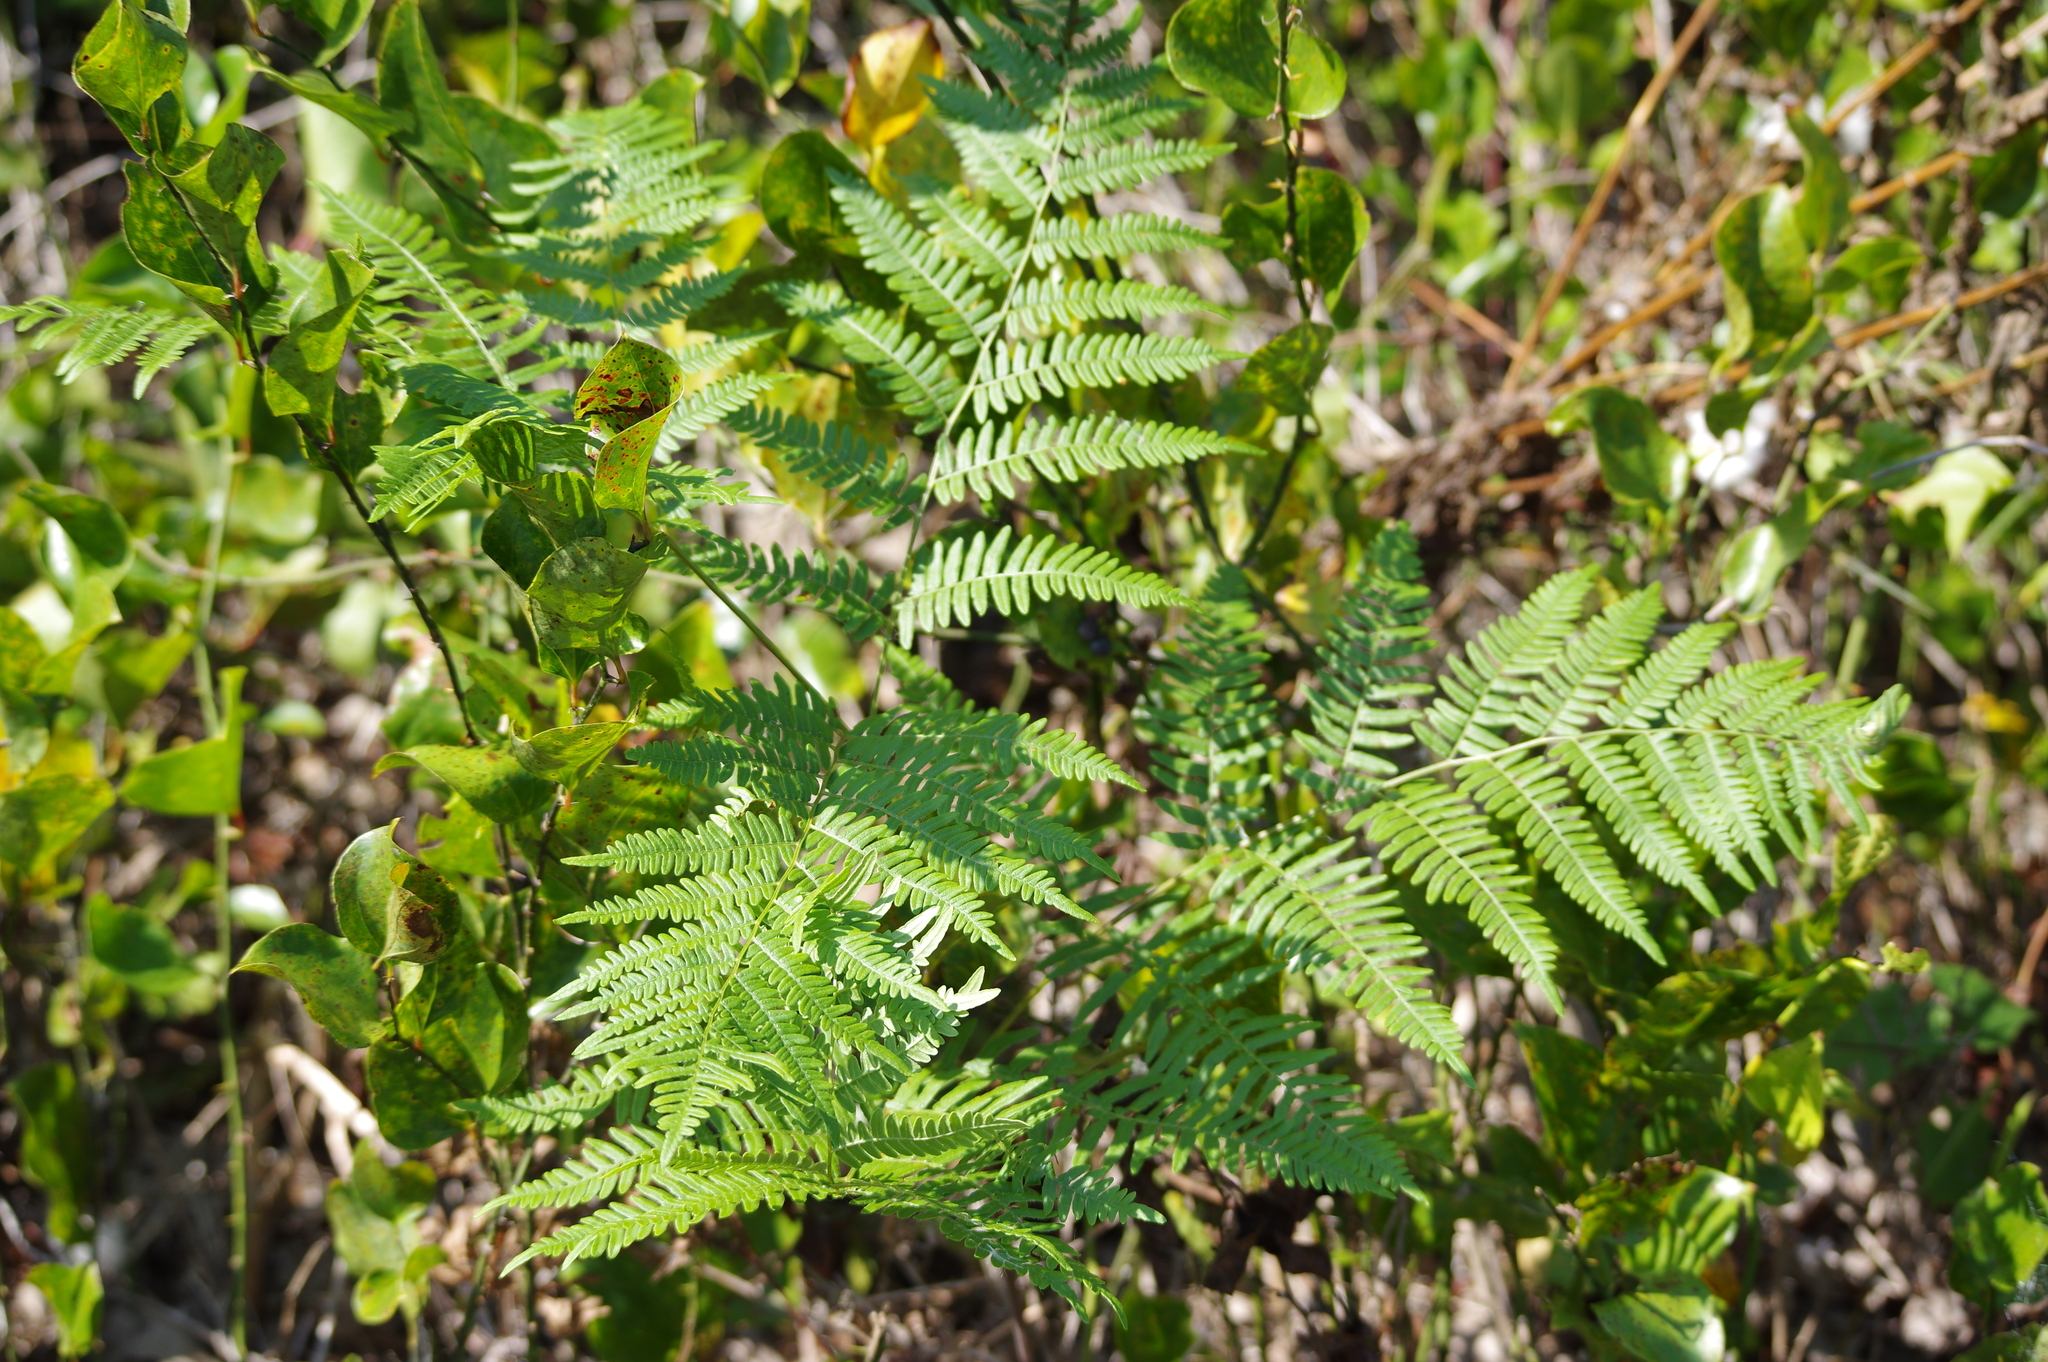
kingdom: Plantae
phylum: Tracheophyta
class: Polypodiopsida
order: Polypodiales
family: Dennstaedtiaceae
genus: Pteridium
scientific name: Pteridium aquilinum
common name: Bracken
